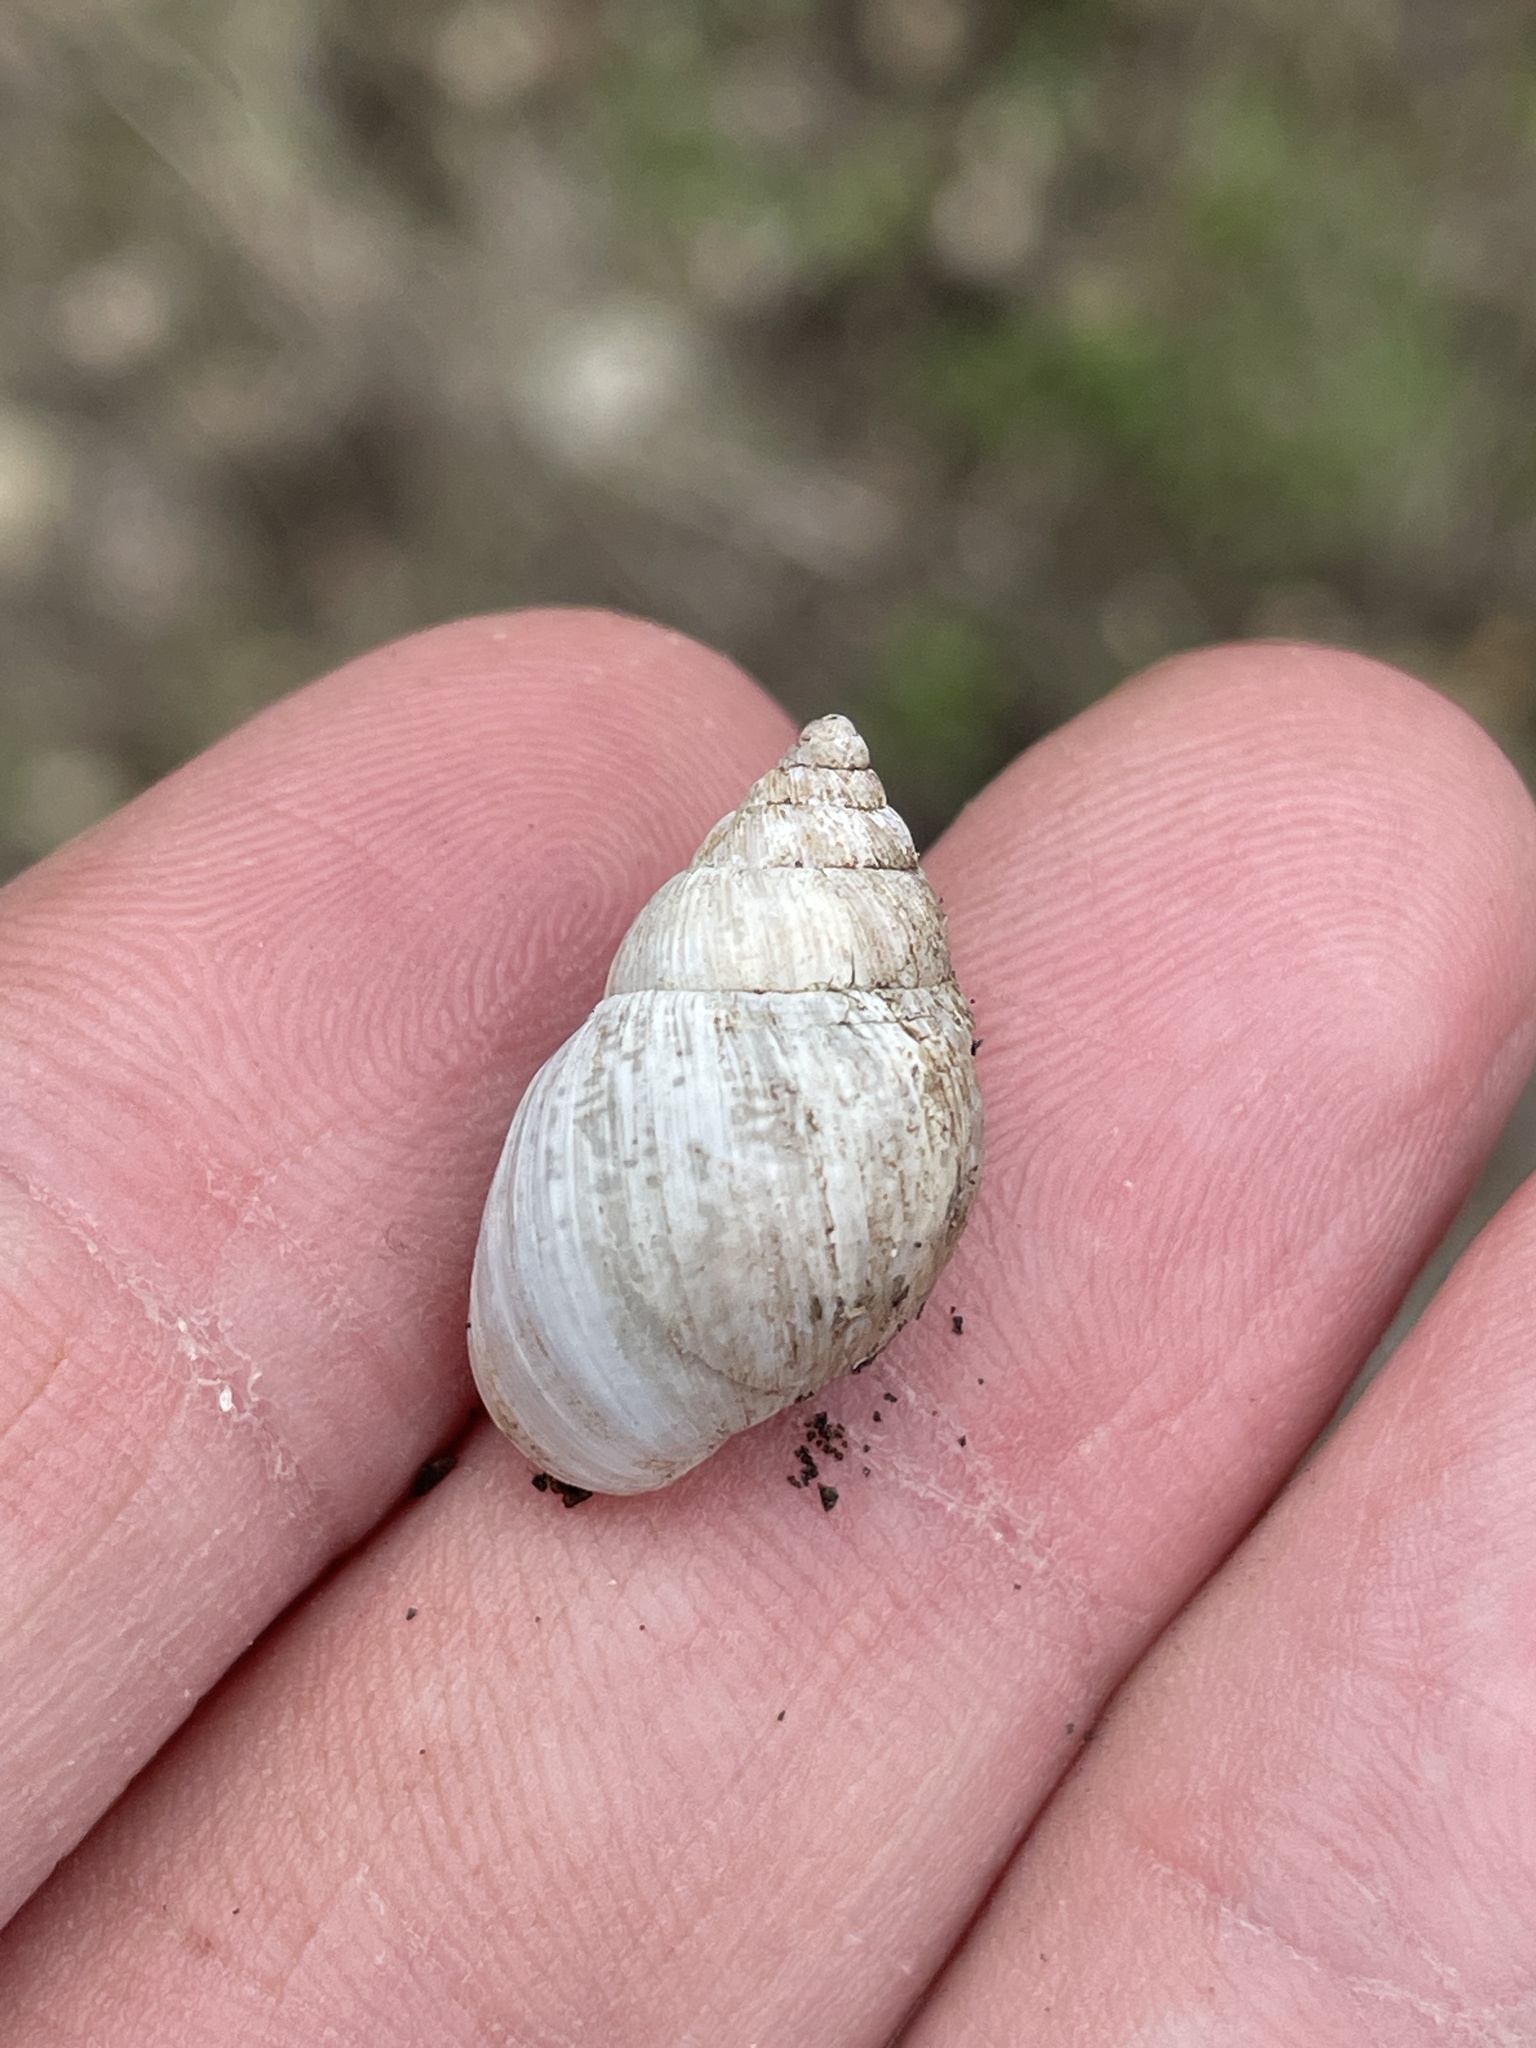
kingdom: Animalia
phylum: Mollusca
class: Gastropoda
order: Stylommatophora
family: Bulimulidae
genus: Rabdotus
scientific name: Rabdotus mooreanus
